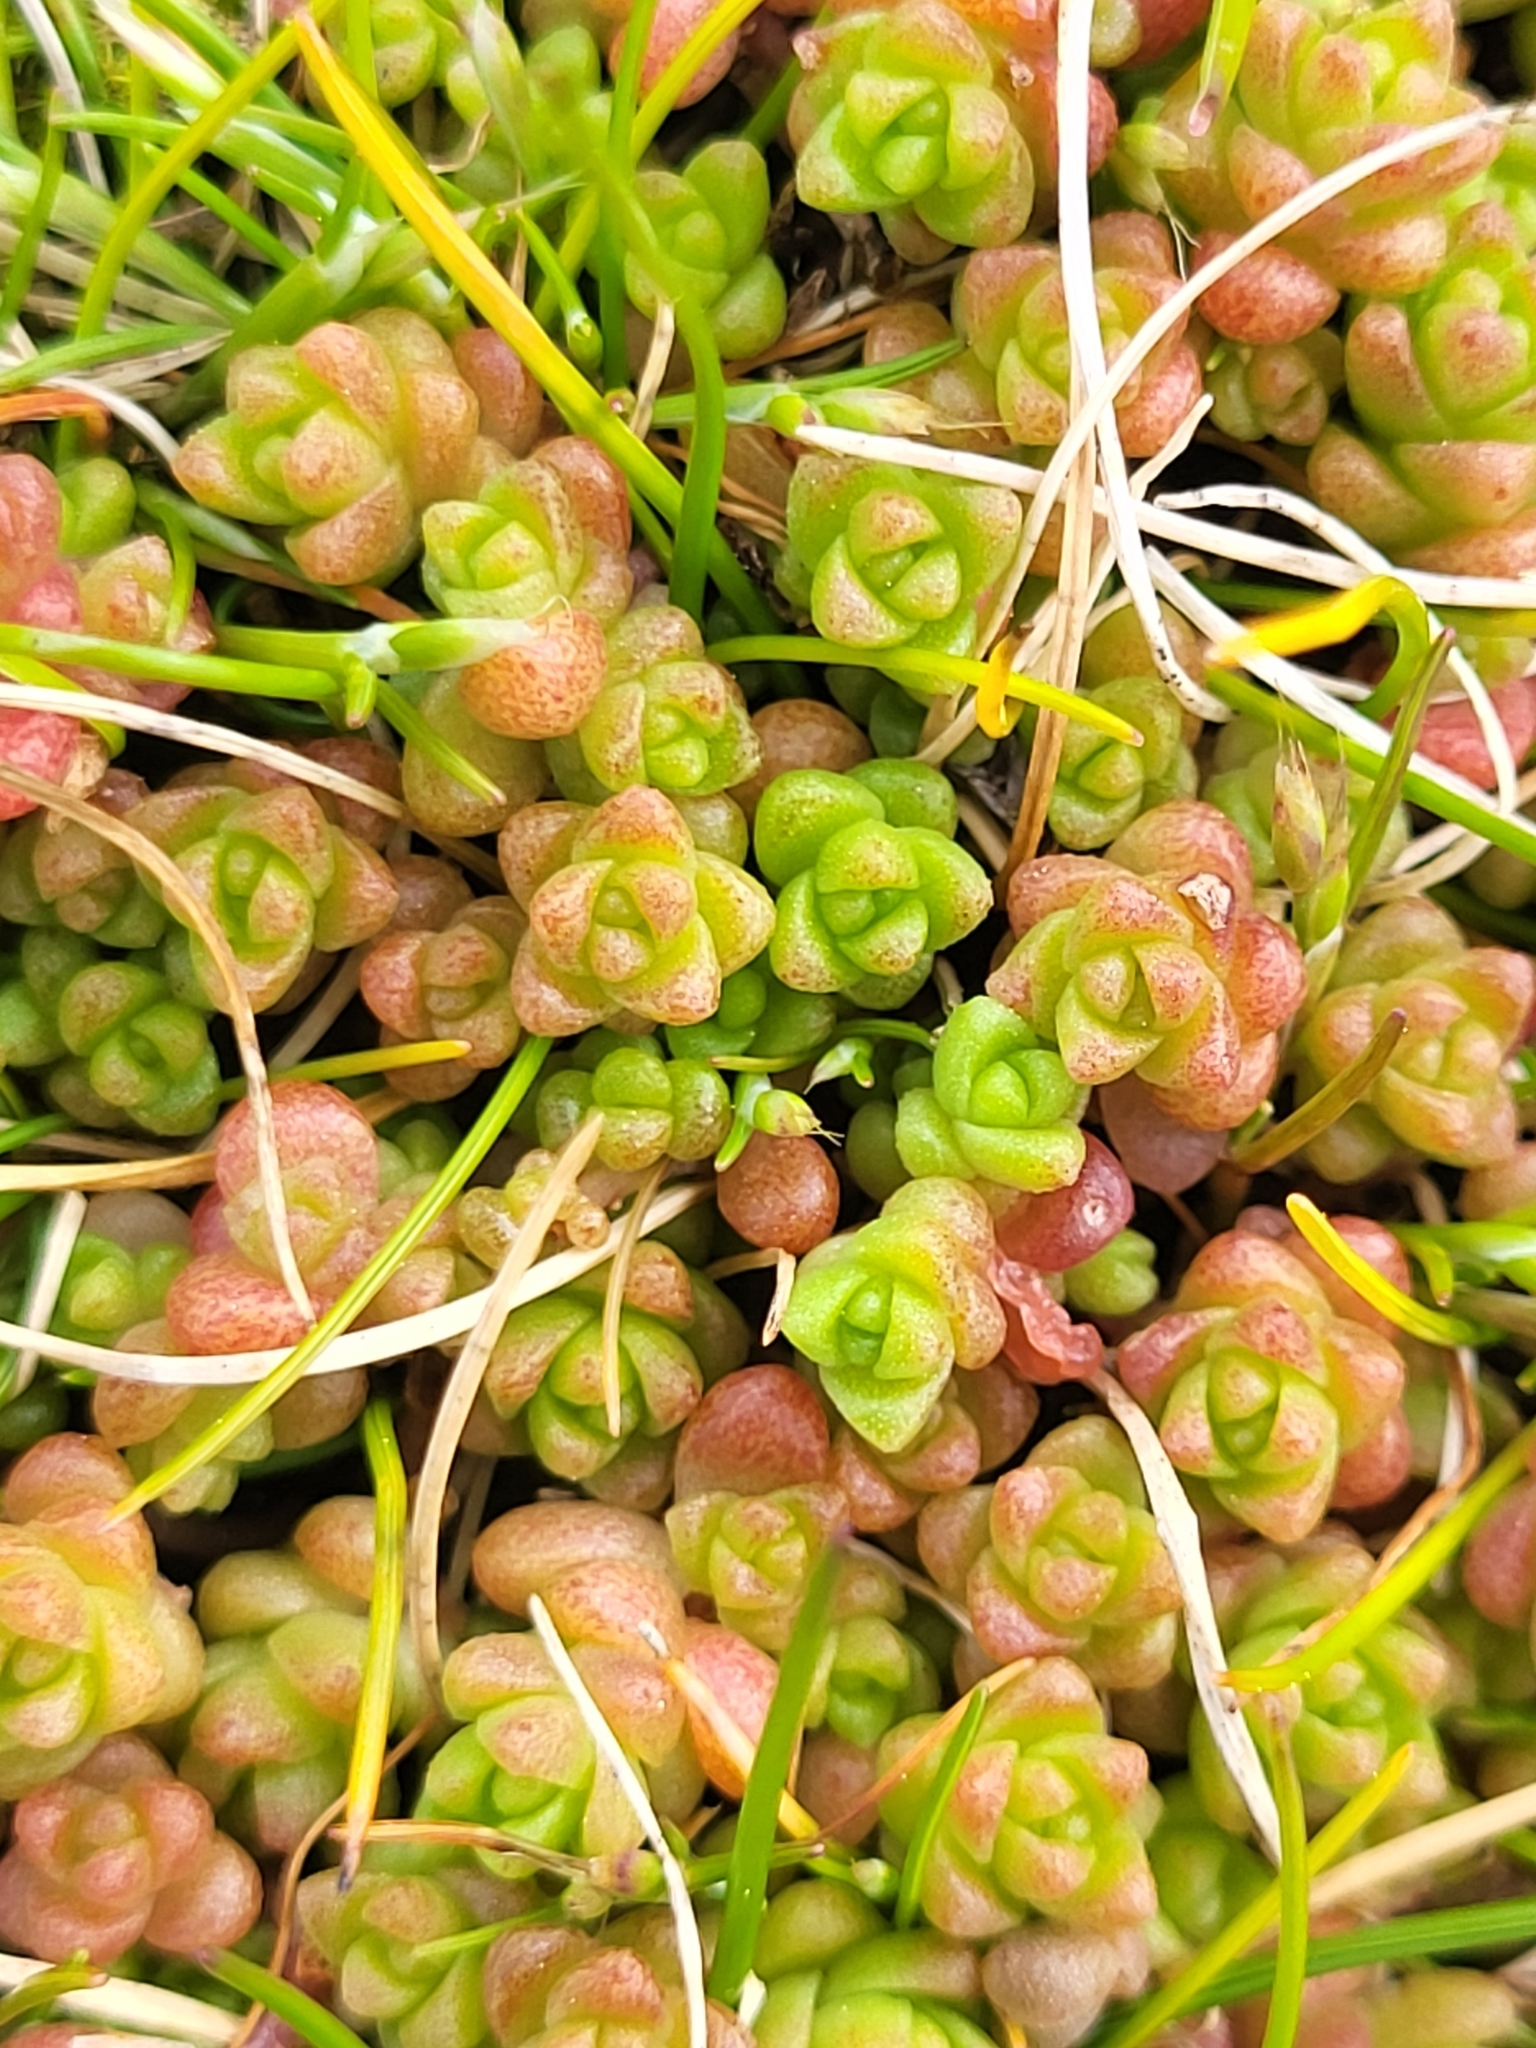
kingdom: Plantae
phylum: Tracheophyta
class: Magnoliopsida
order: Saxifragales
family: Crassulaceae
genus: Sedum
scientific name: Sedum anglicum
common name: English stonecrop
